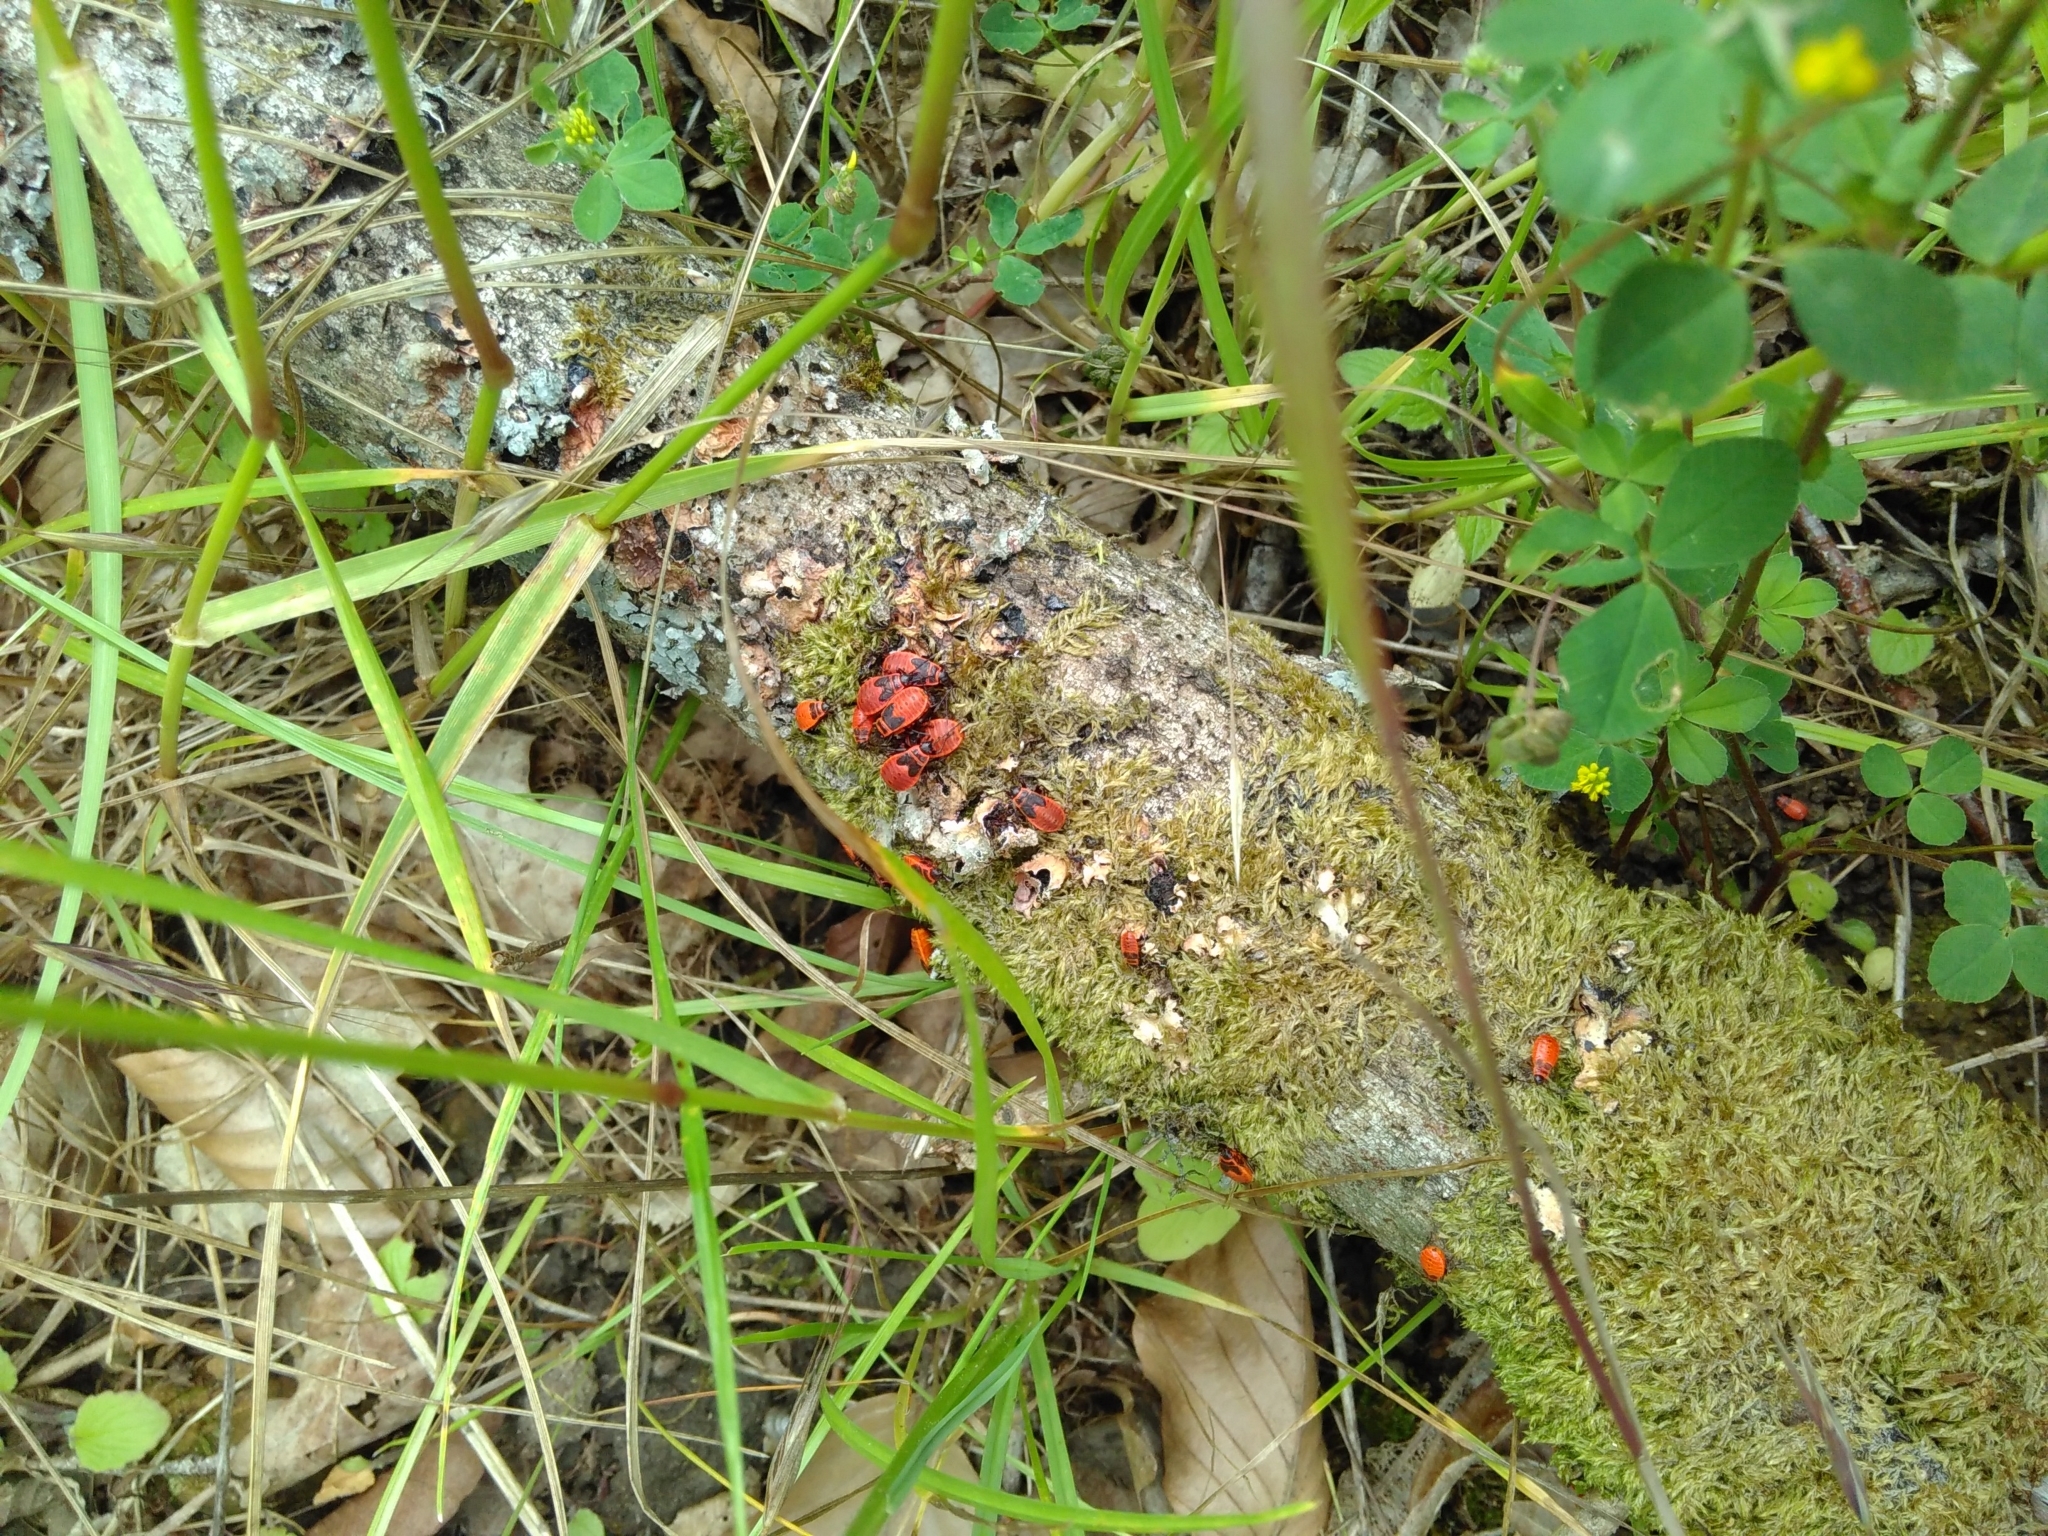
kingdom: Animalia
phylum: Arthropoda
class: Insecta
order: Hemiptera
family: Pyrrhocoridae
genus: Pyrrhocoris
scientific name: Pyrrhocoris apterus
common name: Firebug
